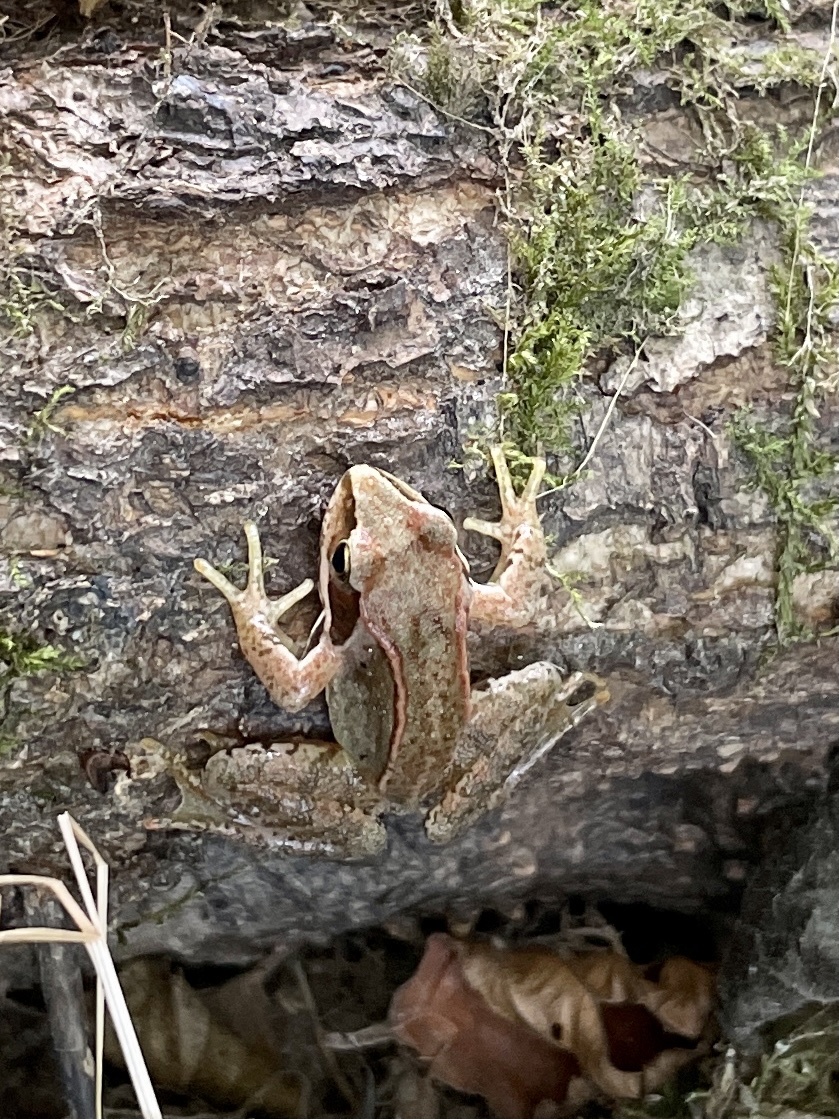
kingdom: Animalia
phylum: Chordata
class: Amphibia
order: Anura
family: Ranidae
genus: Rana
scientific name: Rana temporaria
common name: Common frog
